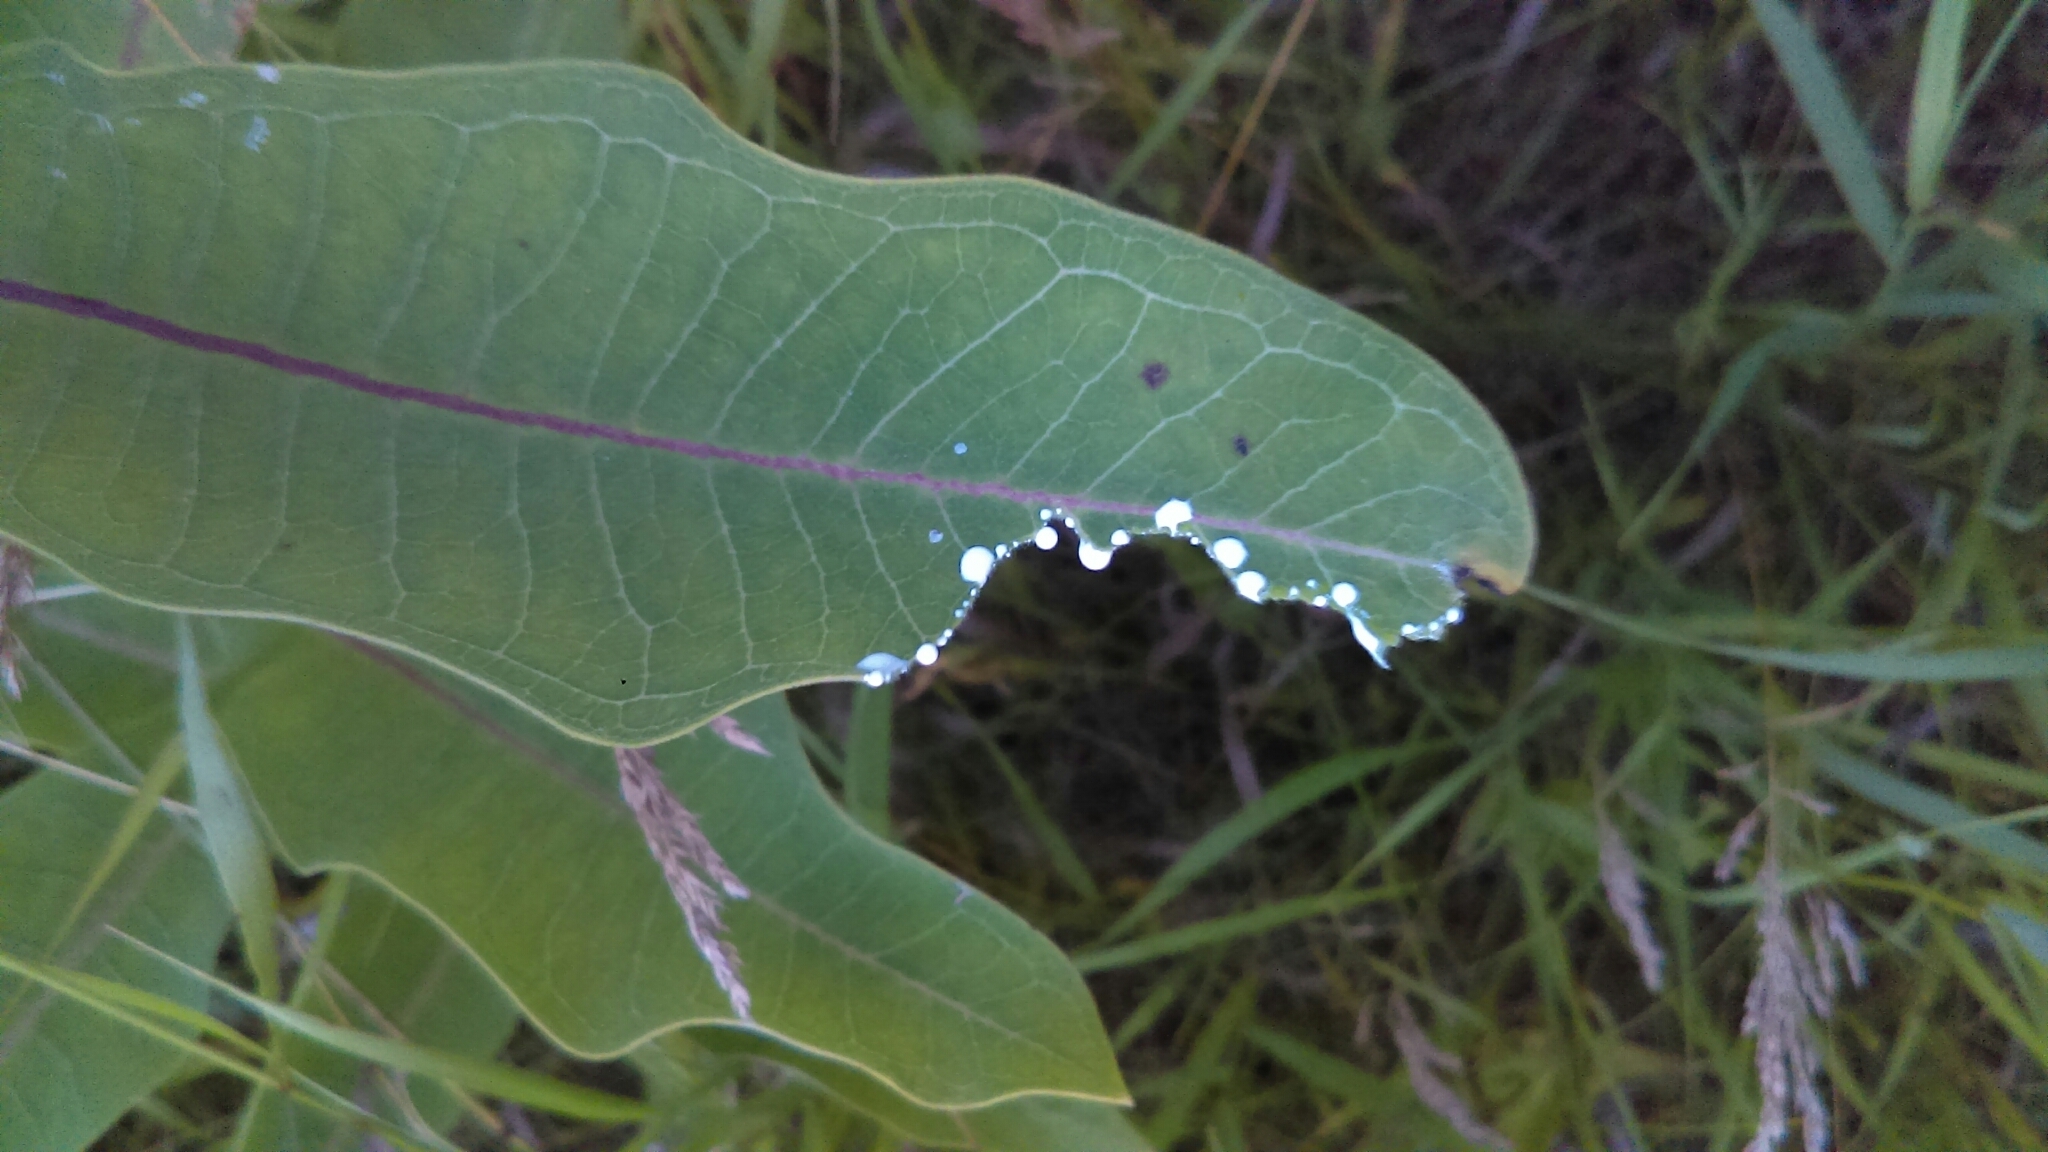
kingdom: Plantae
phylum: Tracheophyta
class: Magnoliopsida
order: Gentianales
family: Apocynaceae
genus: Asclepias
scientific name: Asclepias syriaca
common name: Common milkweed
